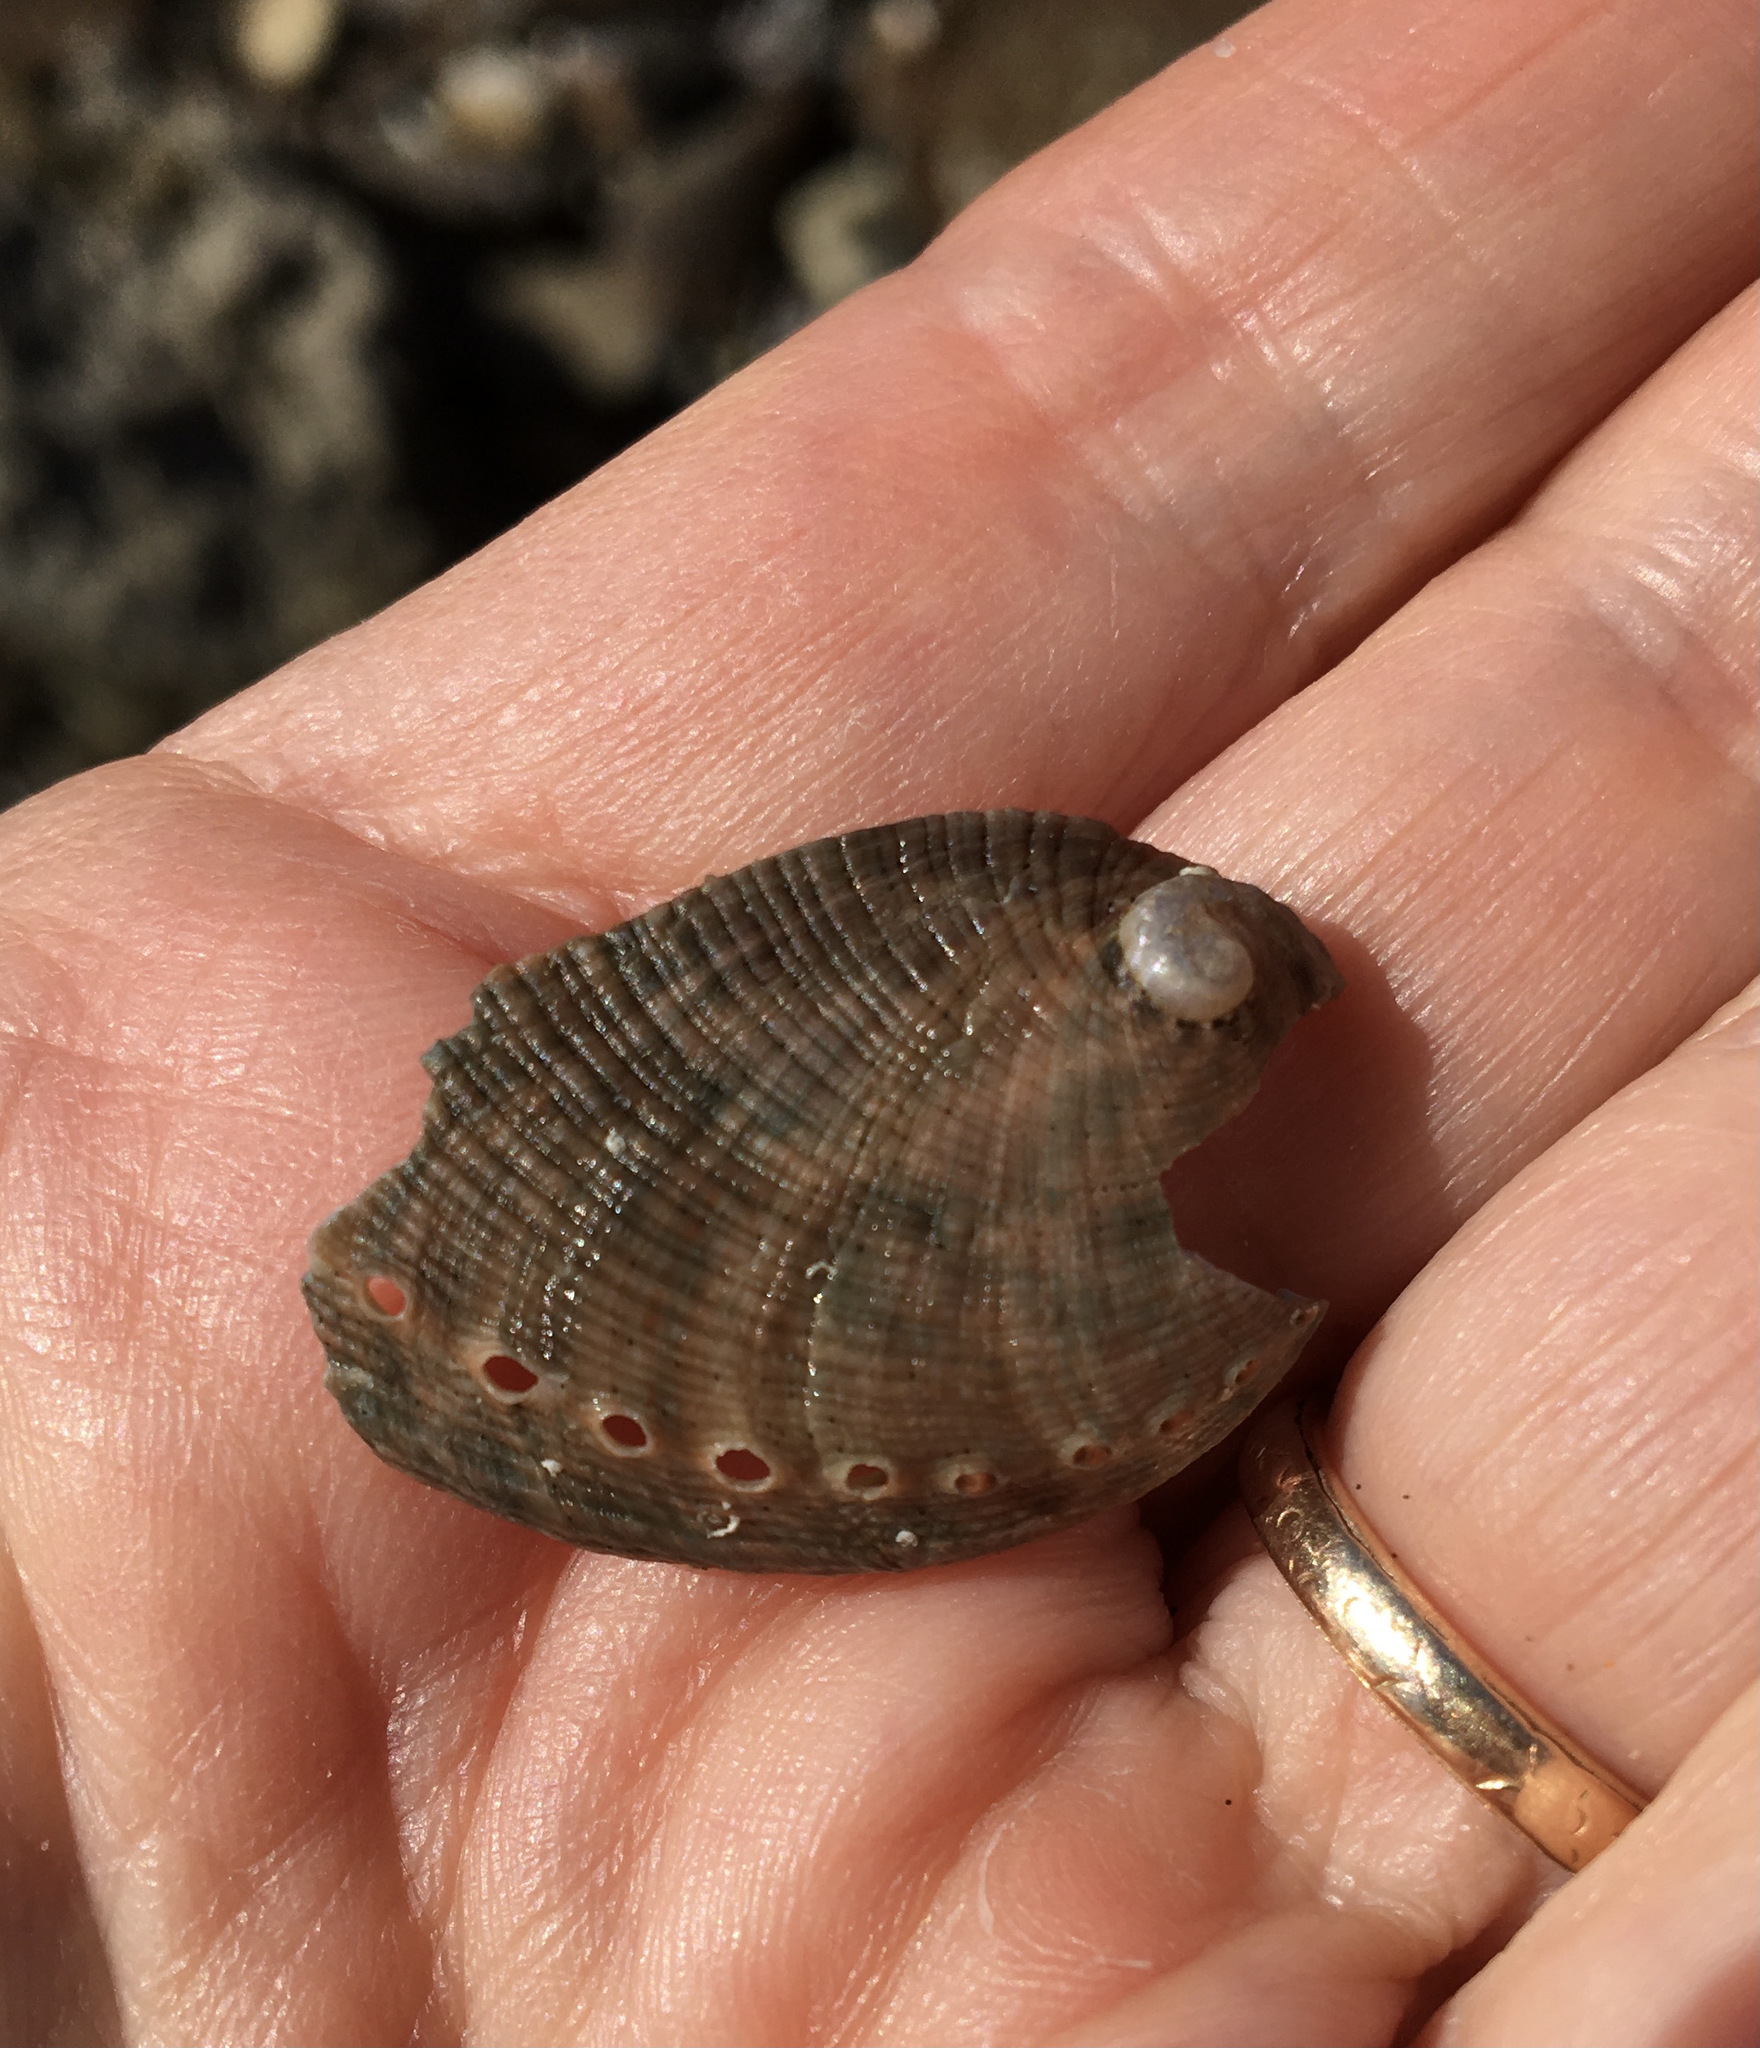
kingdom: Animalia
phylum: Mollusca
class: Gastropoda
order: Lepetellida
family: Haliotidae
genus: Haliotis
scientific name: Haliotis fulgens
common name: Green abalone
